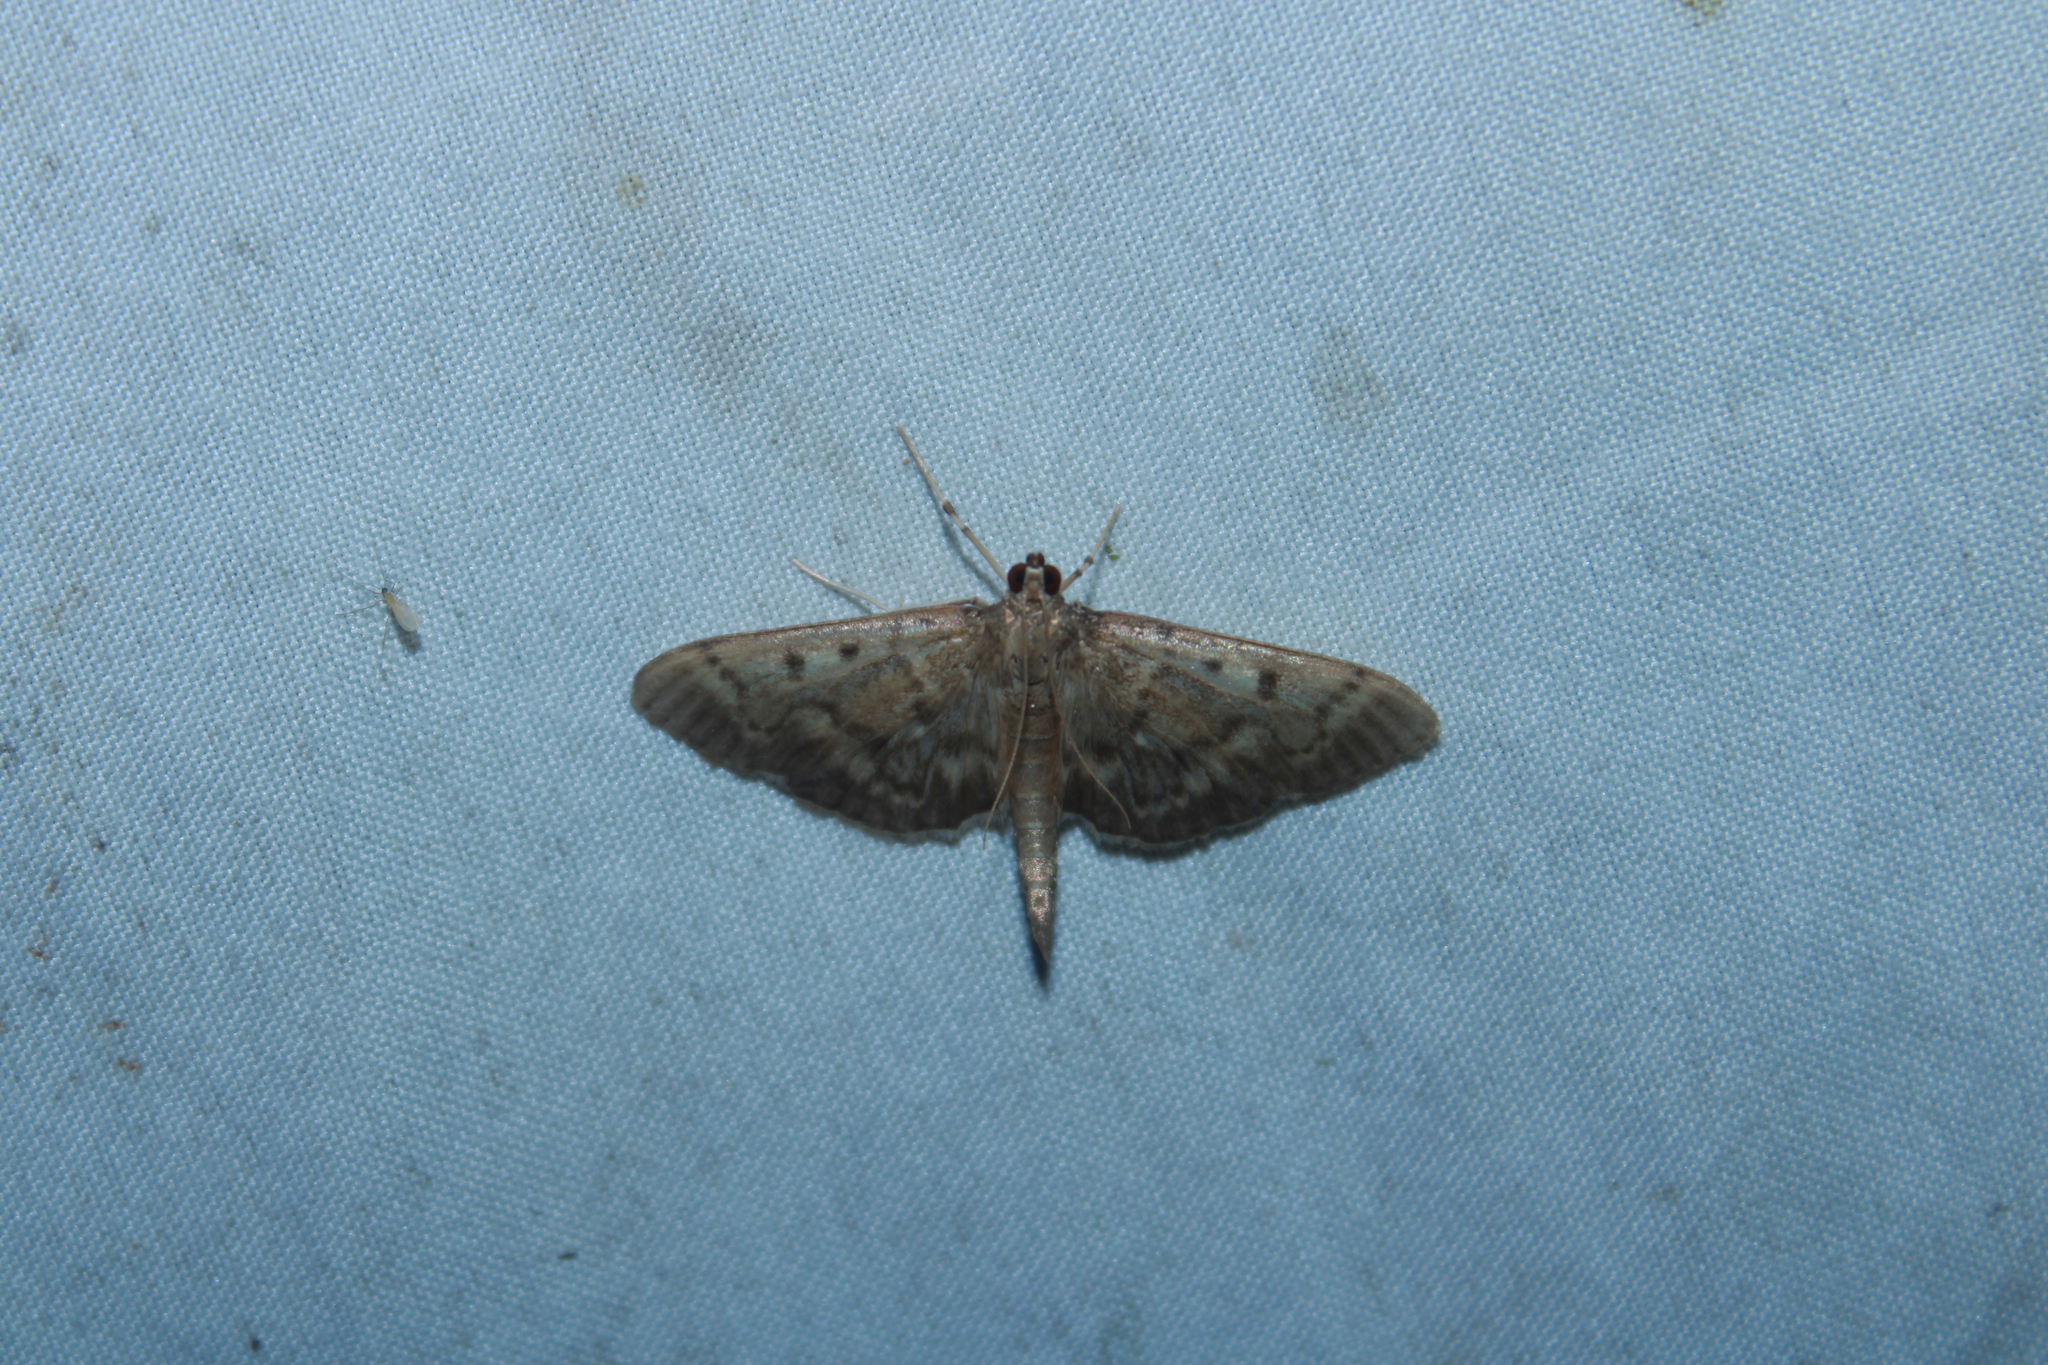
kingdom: Animalia
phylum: Arthropoda
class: Insecta
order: Lepidoptera
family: Crambidae
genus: Herpetogramma
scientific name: Herpetogramma aeglealis
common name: Serpentine webworm moth
